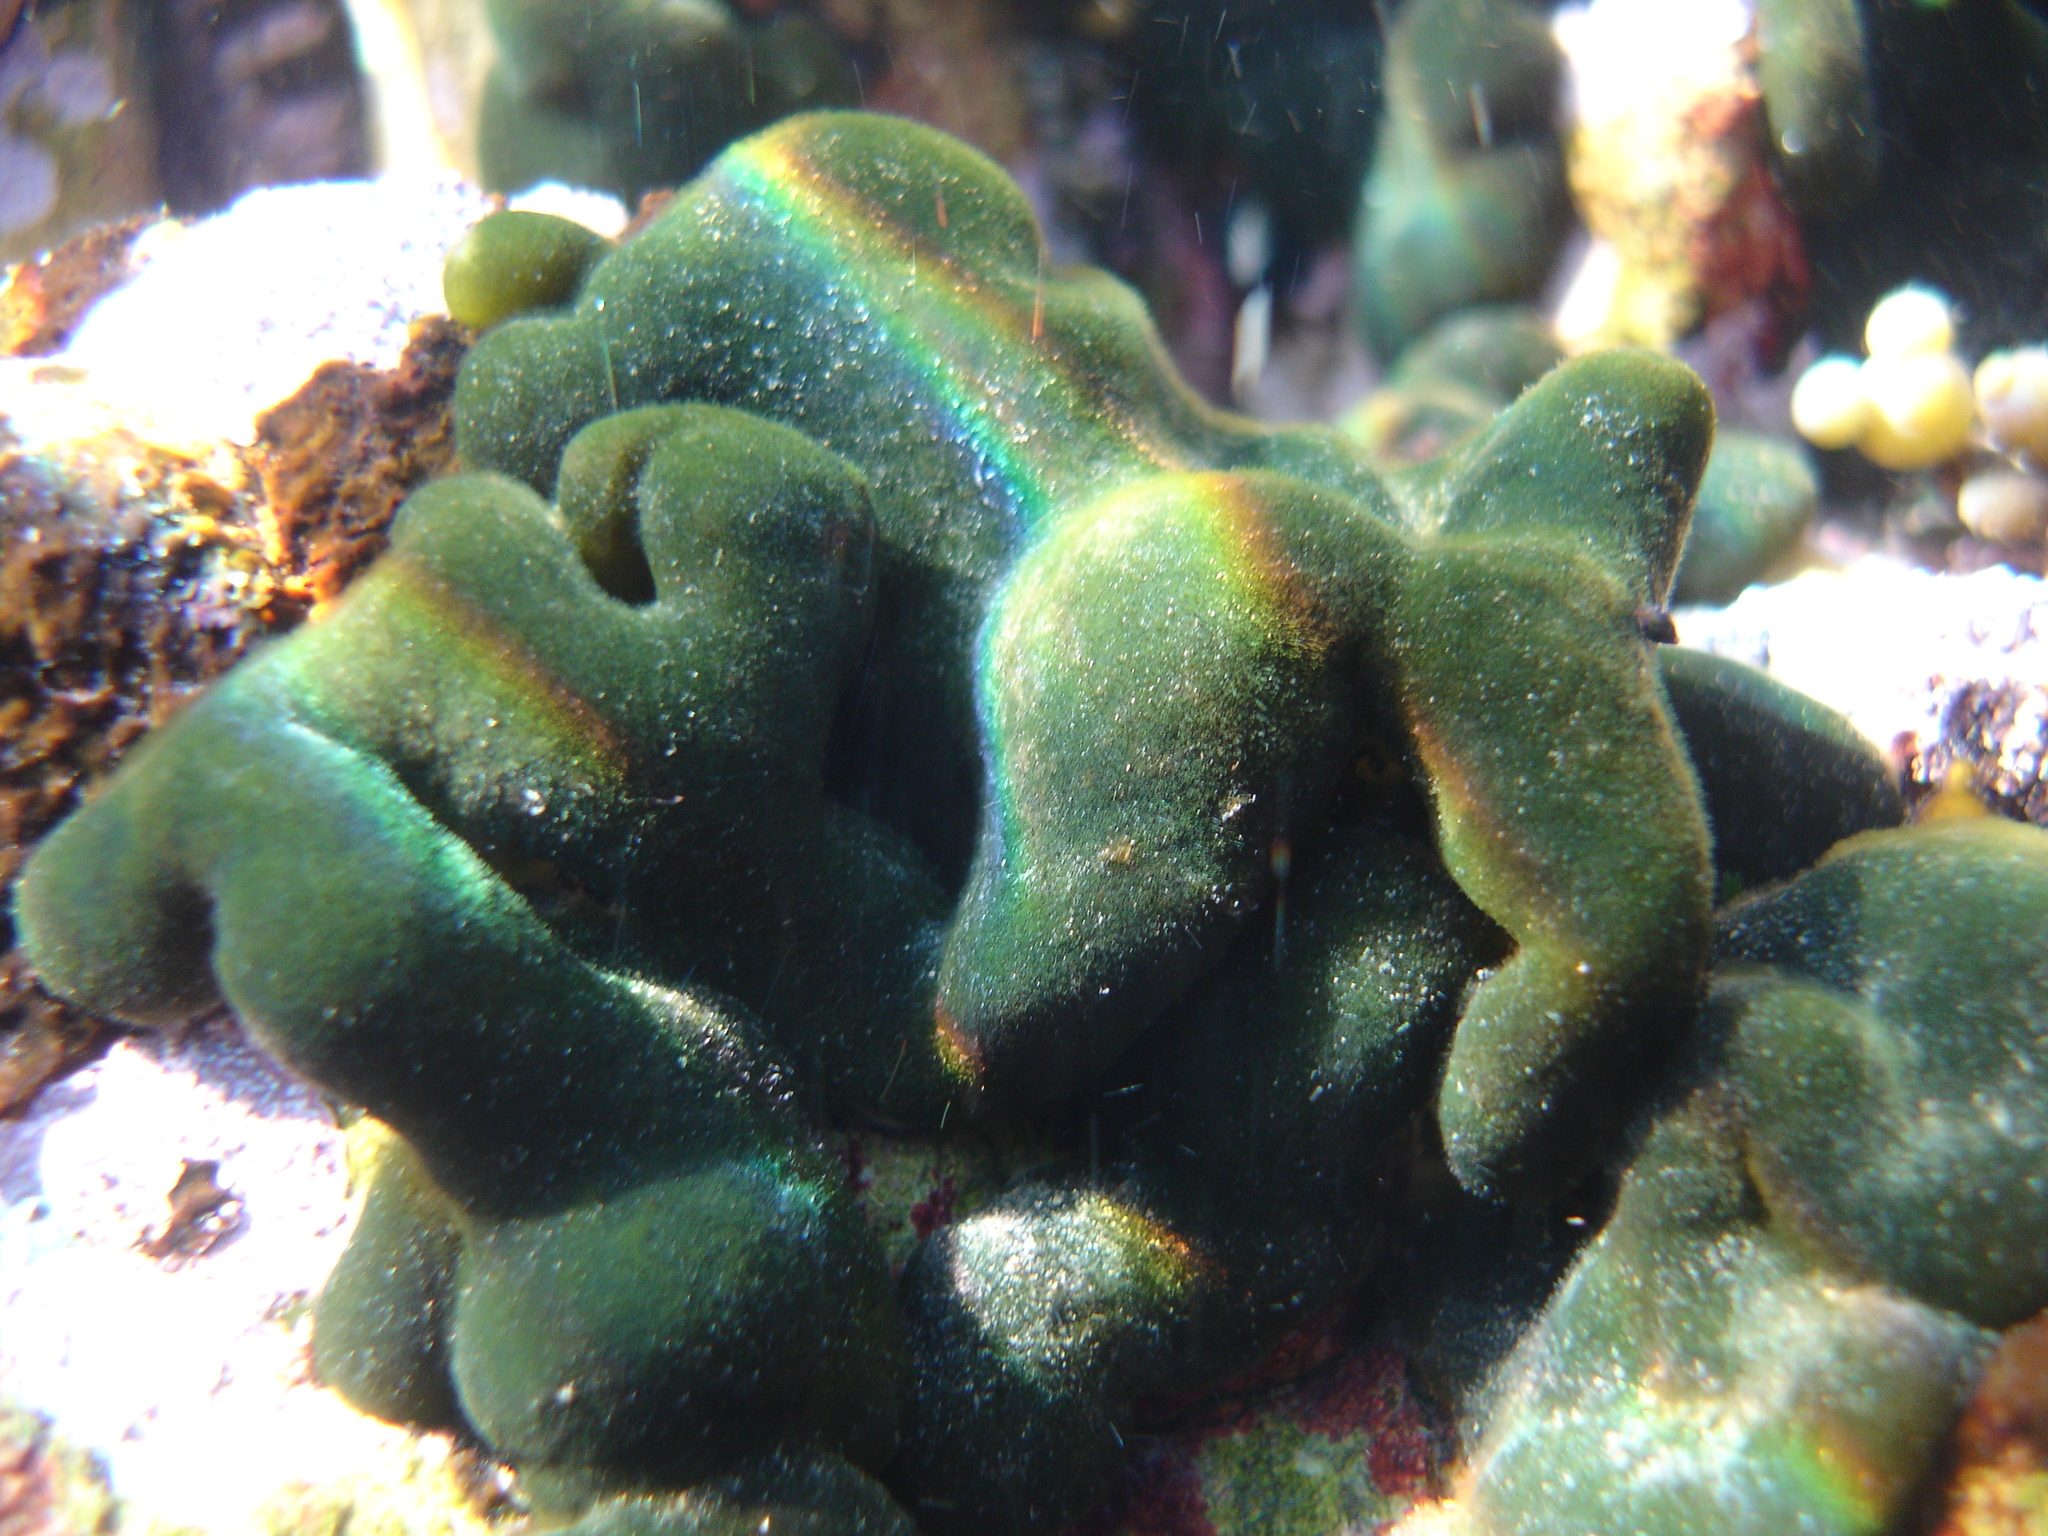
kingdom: Plantae
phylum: Chlorophyta
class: Ulvophyceae
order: Bryopsidales
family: Codiaceae
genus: Codium
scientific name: Codium convolutum
